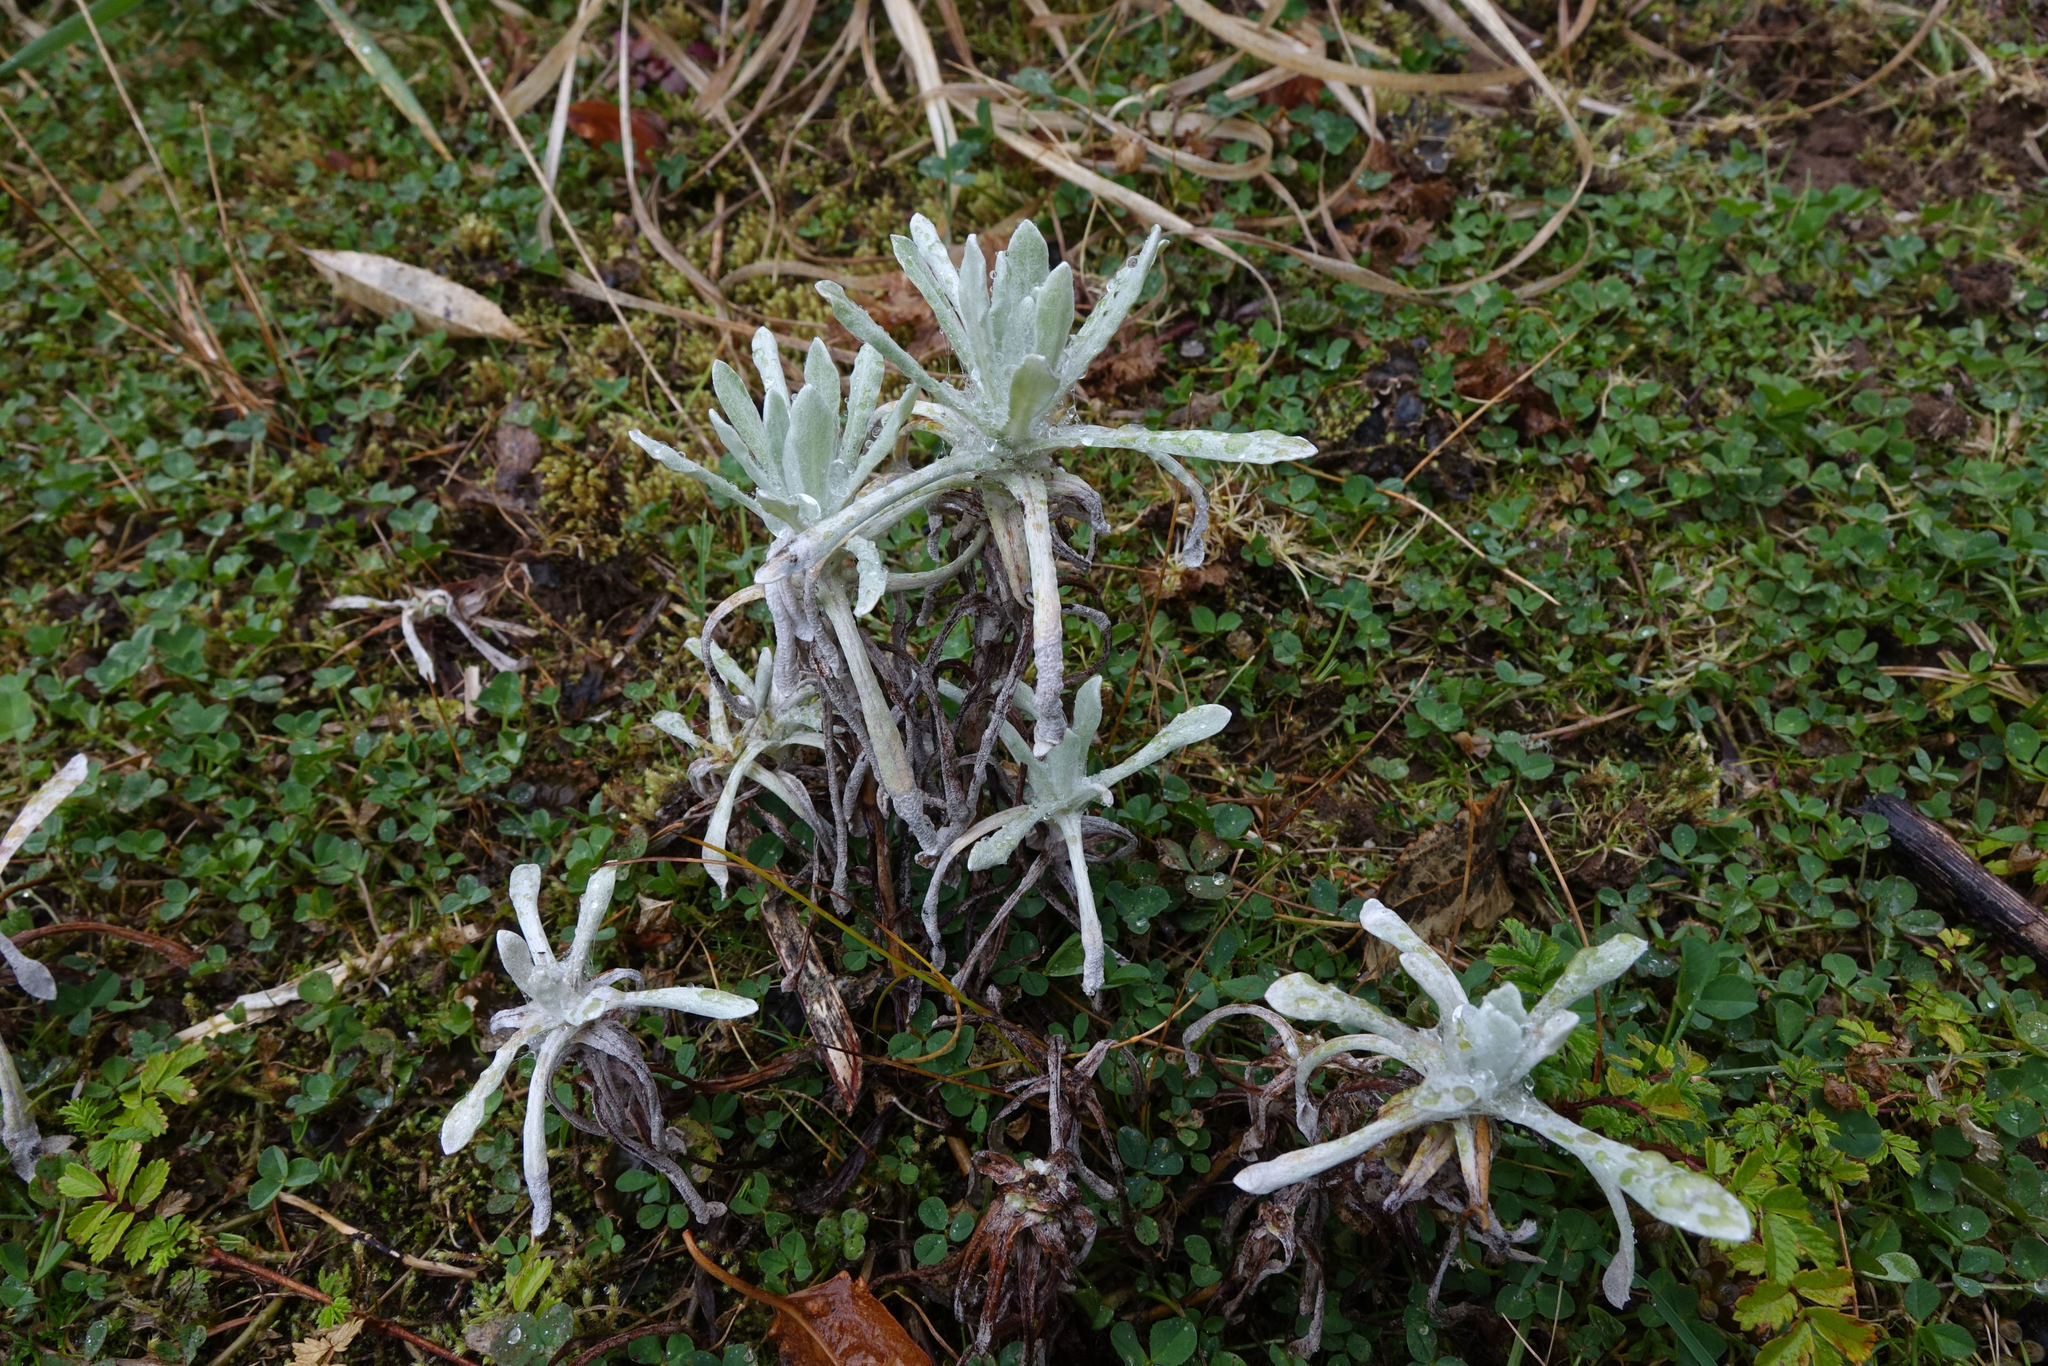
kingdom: Plantae
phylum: Tracheophyta
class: Magnoliopsida
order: Asterales
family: Asteraceae
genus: Helichrysum
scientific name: Helichrysum luteoalbum
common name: Daisy
